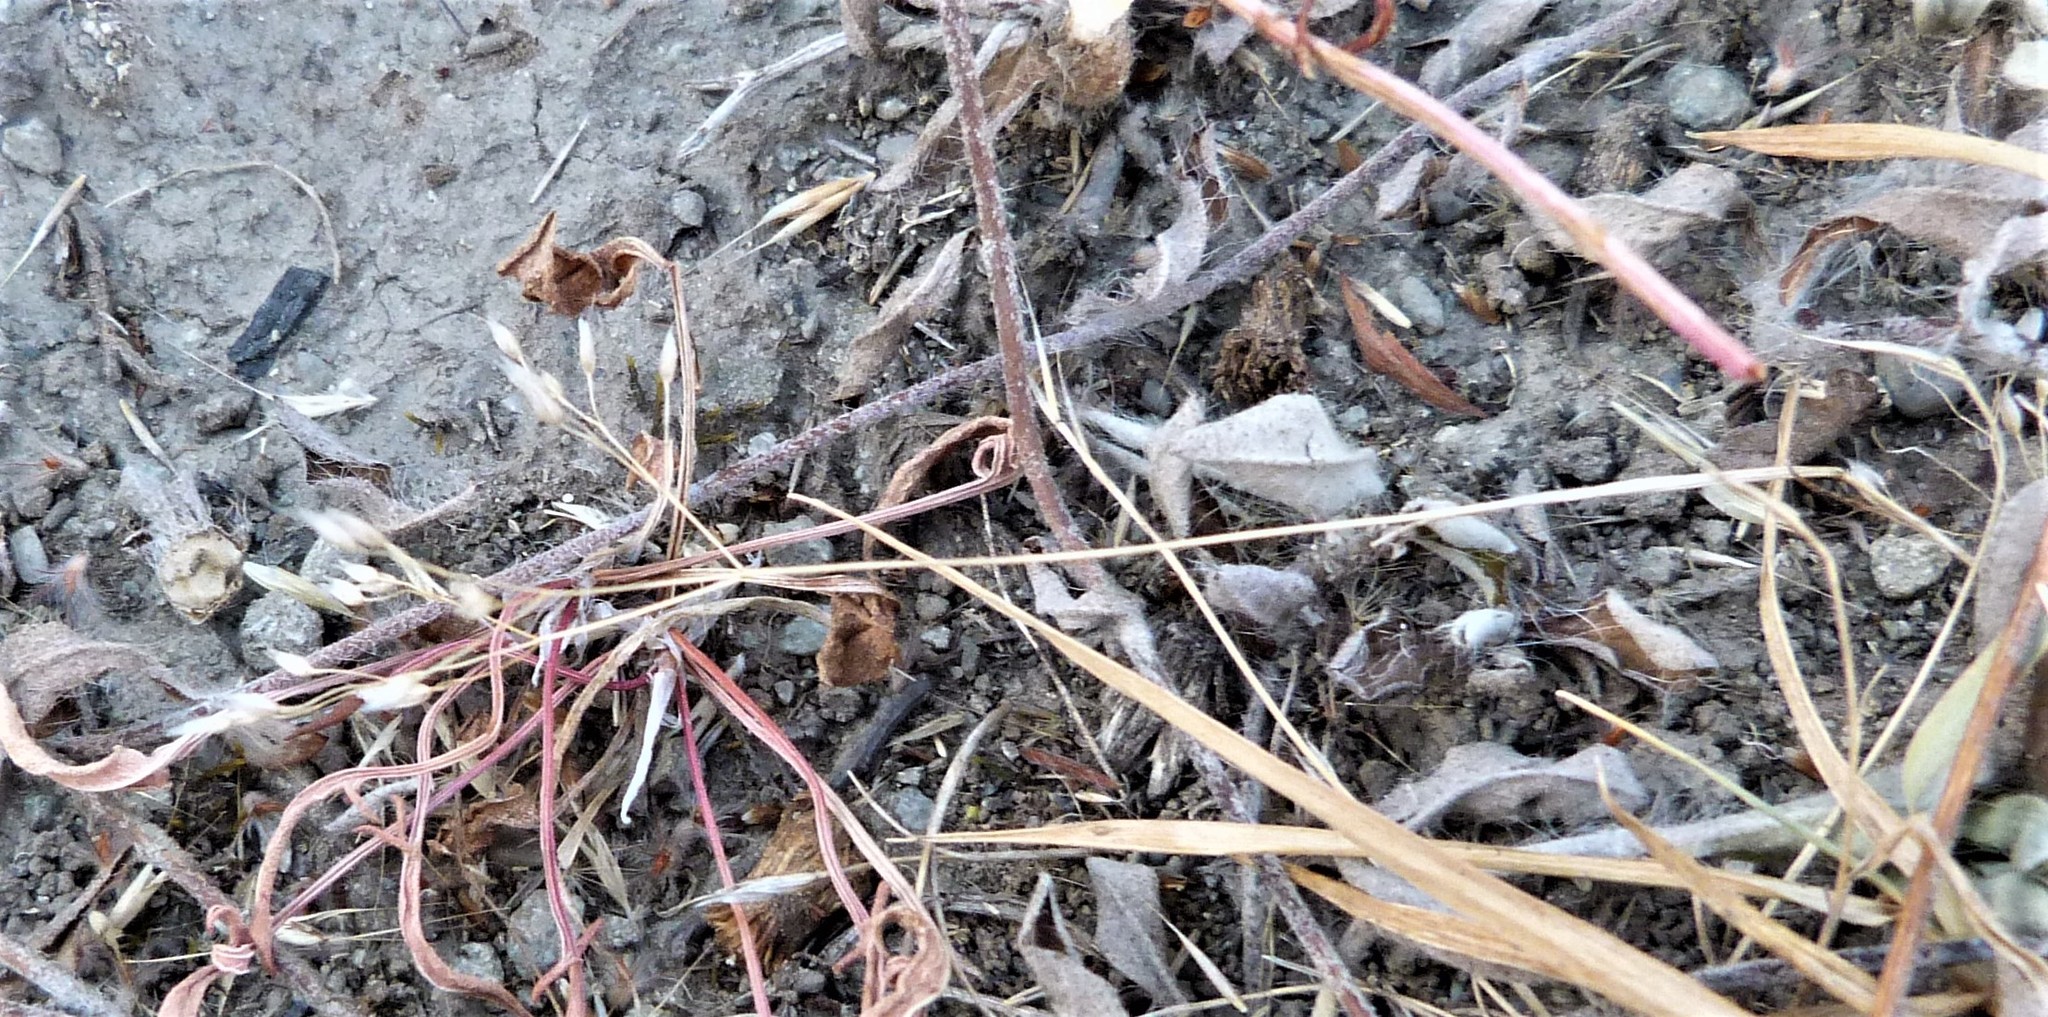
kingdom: Plantae
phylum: Tracheophyta
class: Liliopsida
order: Poales
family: Poaceae
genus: Aira
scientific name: Aira caryophyllea
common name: Silver hairgrass
